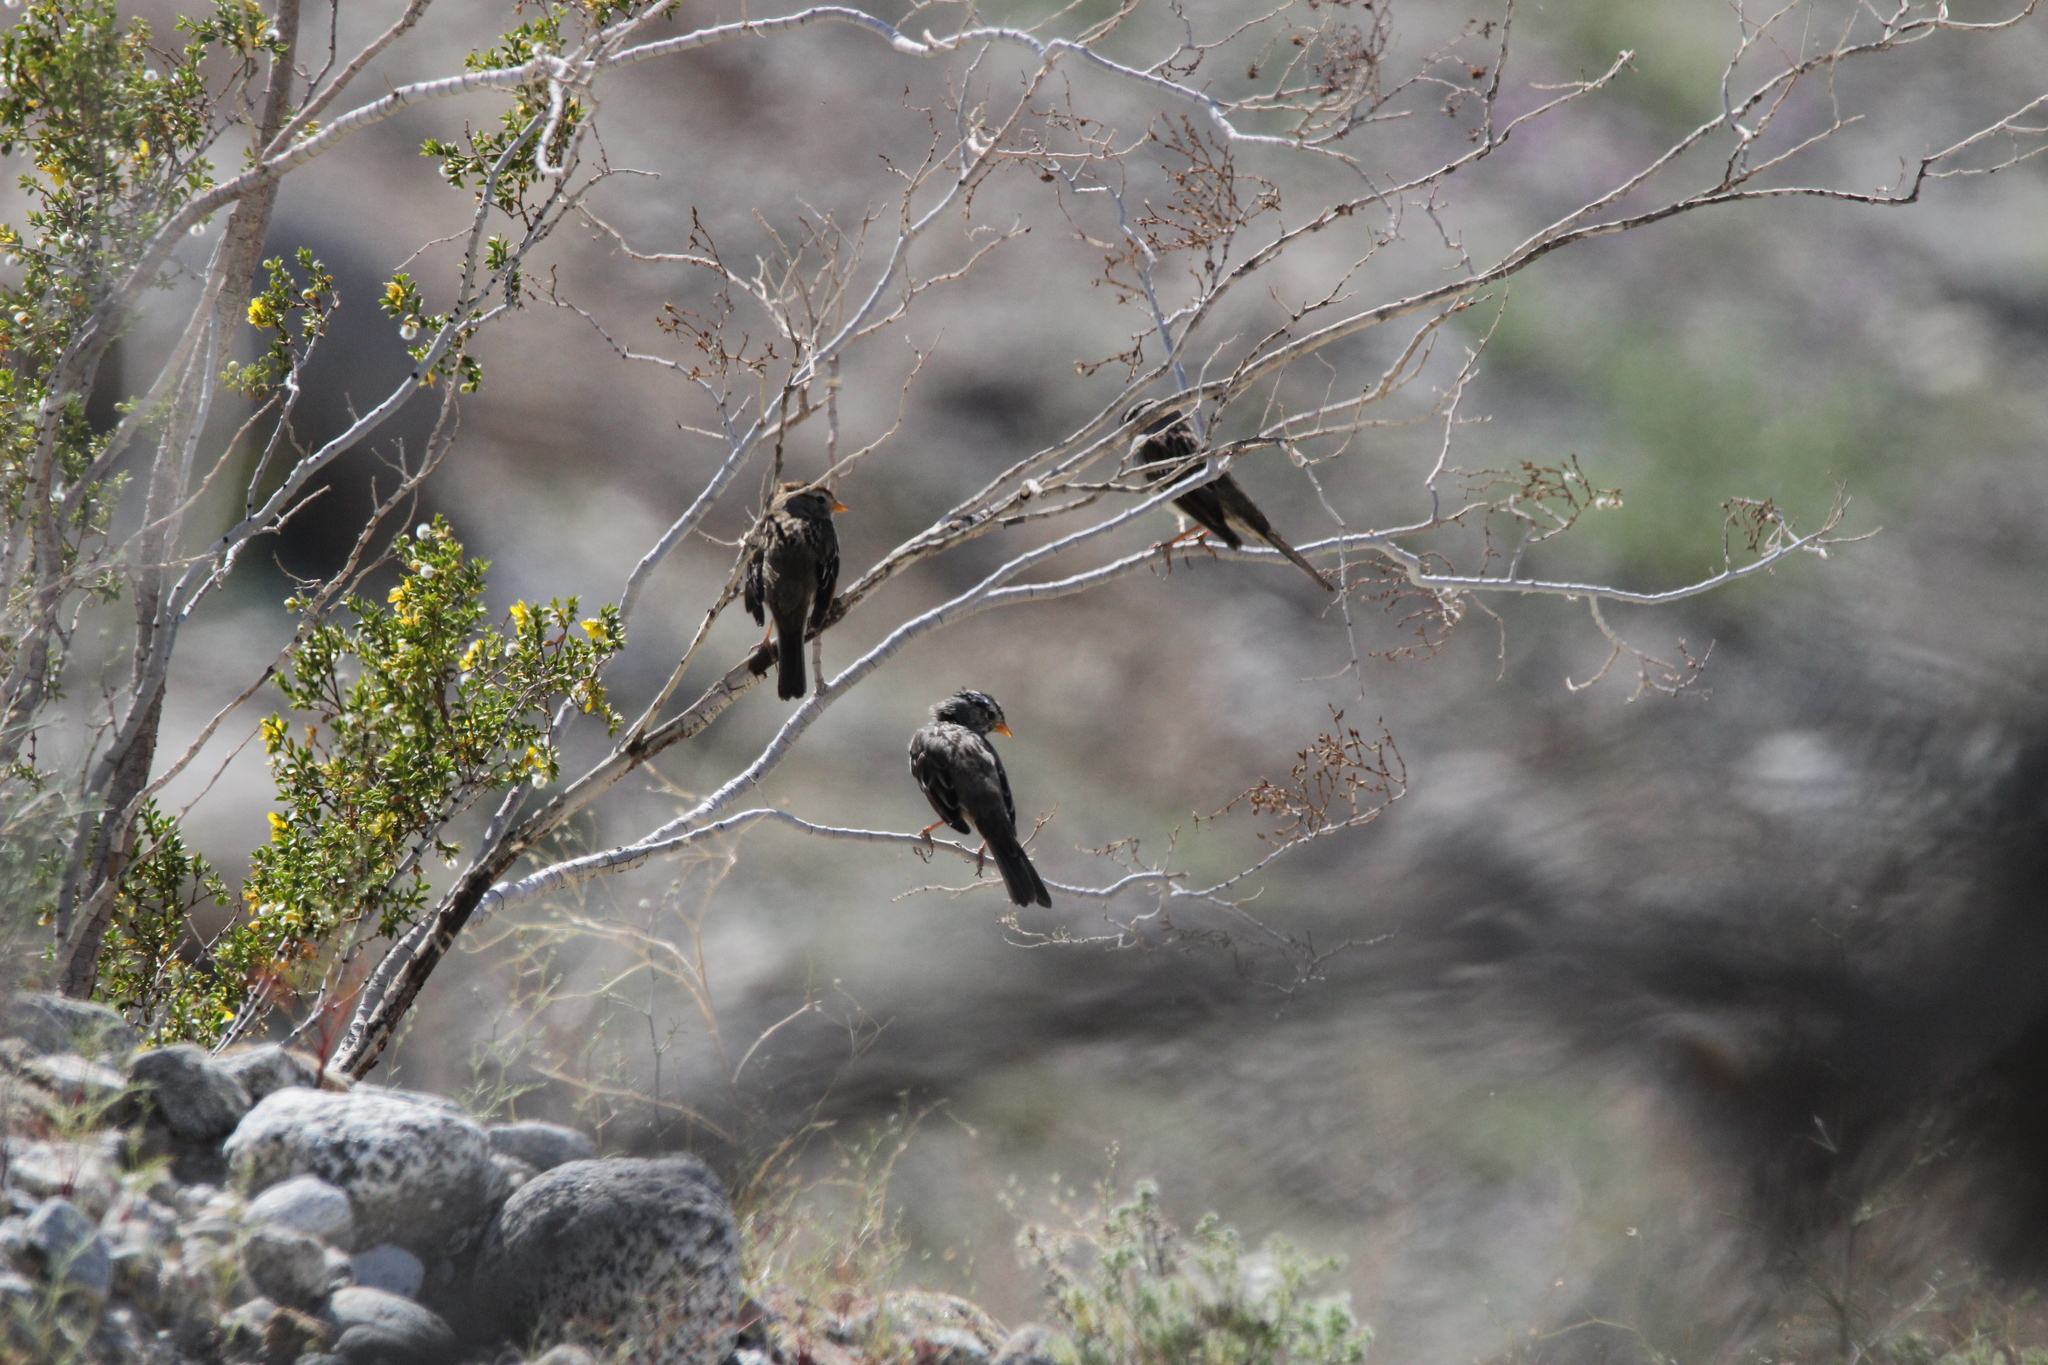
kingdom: Animalia
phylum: Chordata
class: Aves
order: Passeriformes
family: Passerellidae
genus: Zonotrichia
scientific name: Zonotrichia leucophrys
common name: White-crowned sparrow
